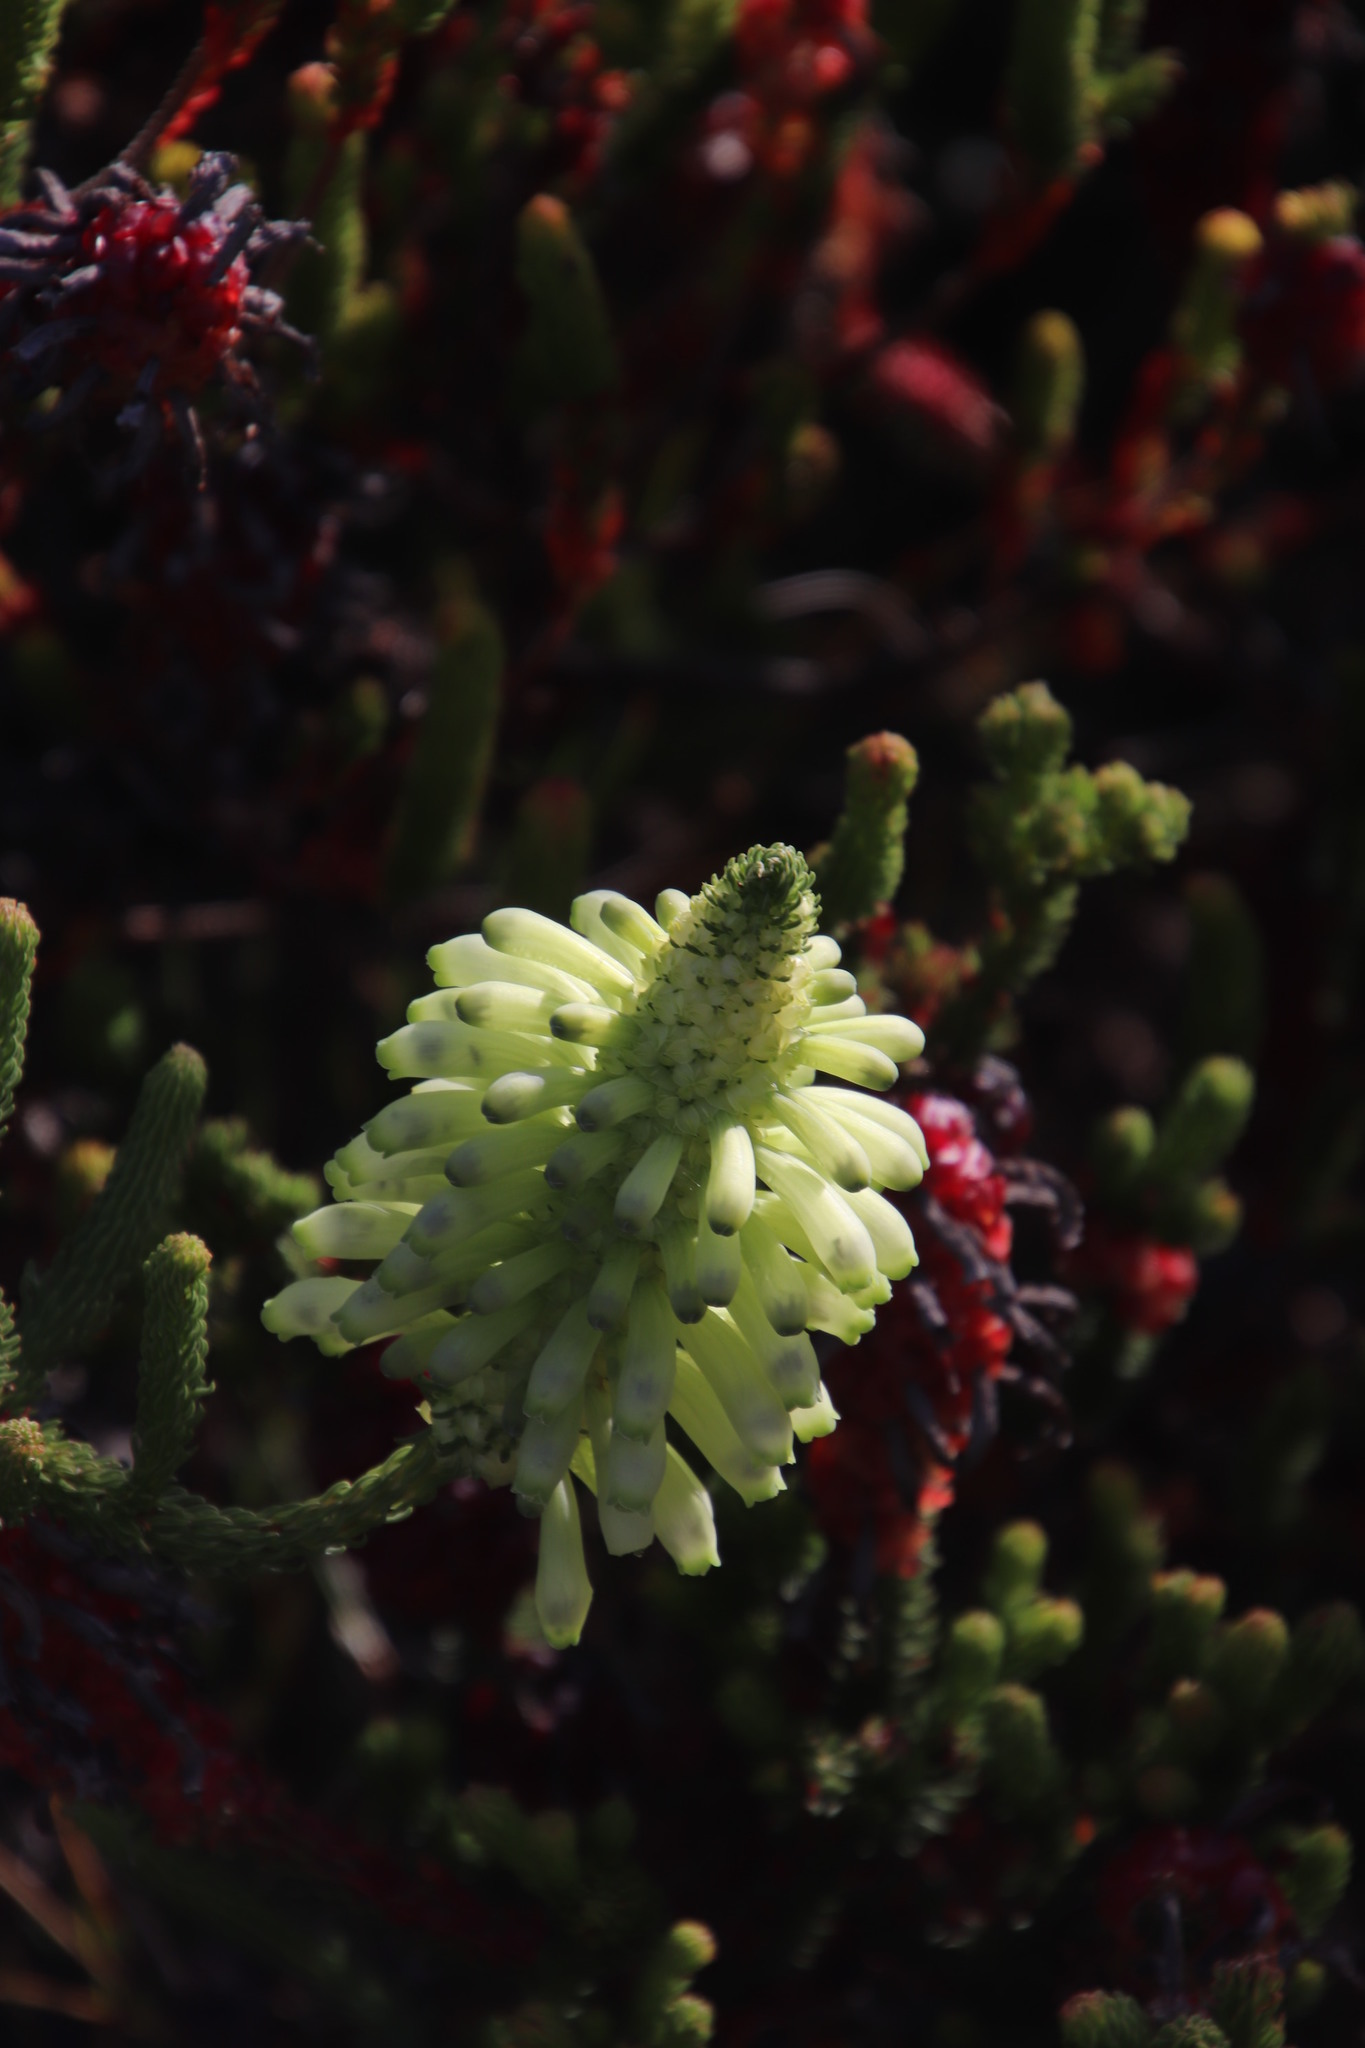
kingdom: Plantae
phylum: Tracheophyta
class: Magnoliopsida
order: Ericales
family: Ericaceae
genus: Erica
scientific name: Erica sessiliflora
